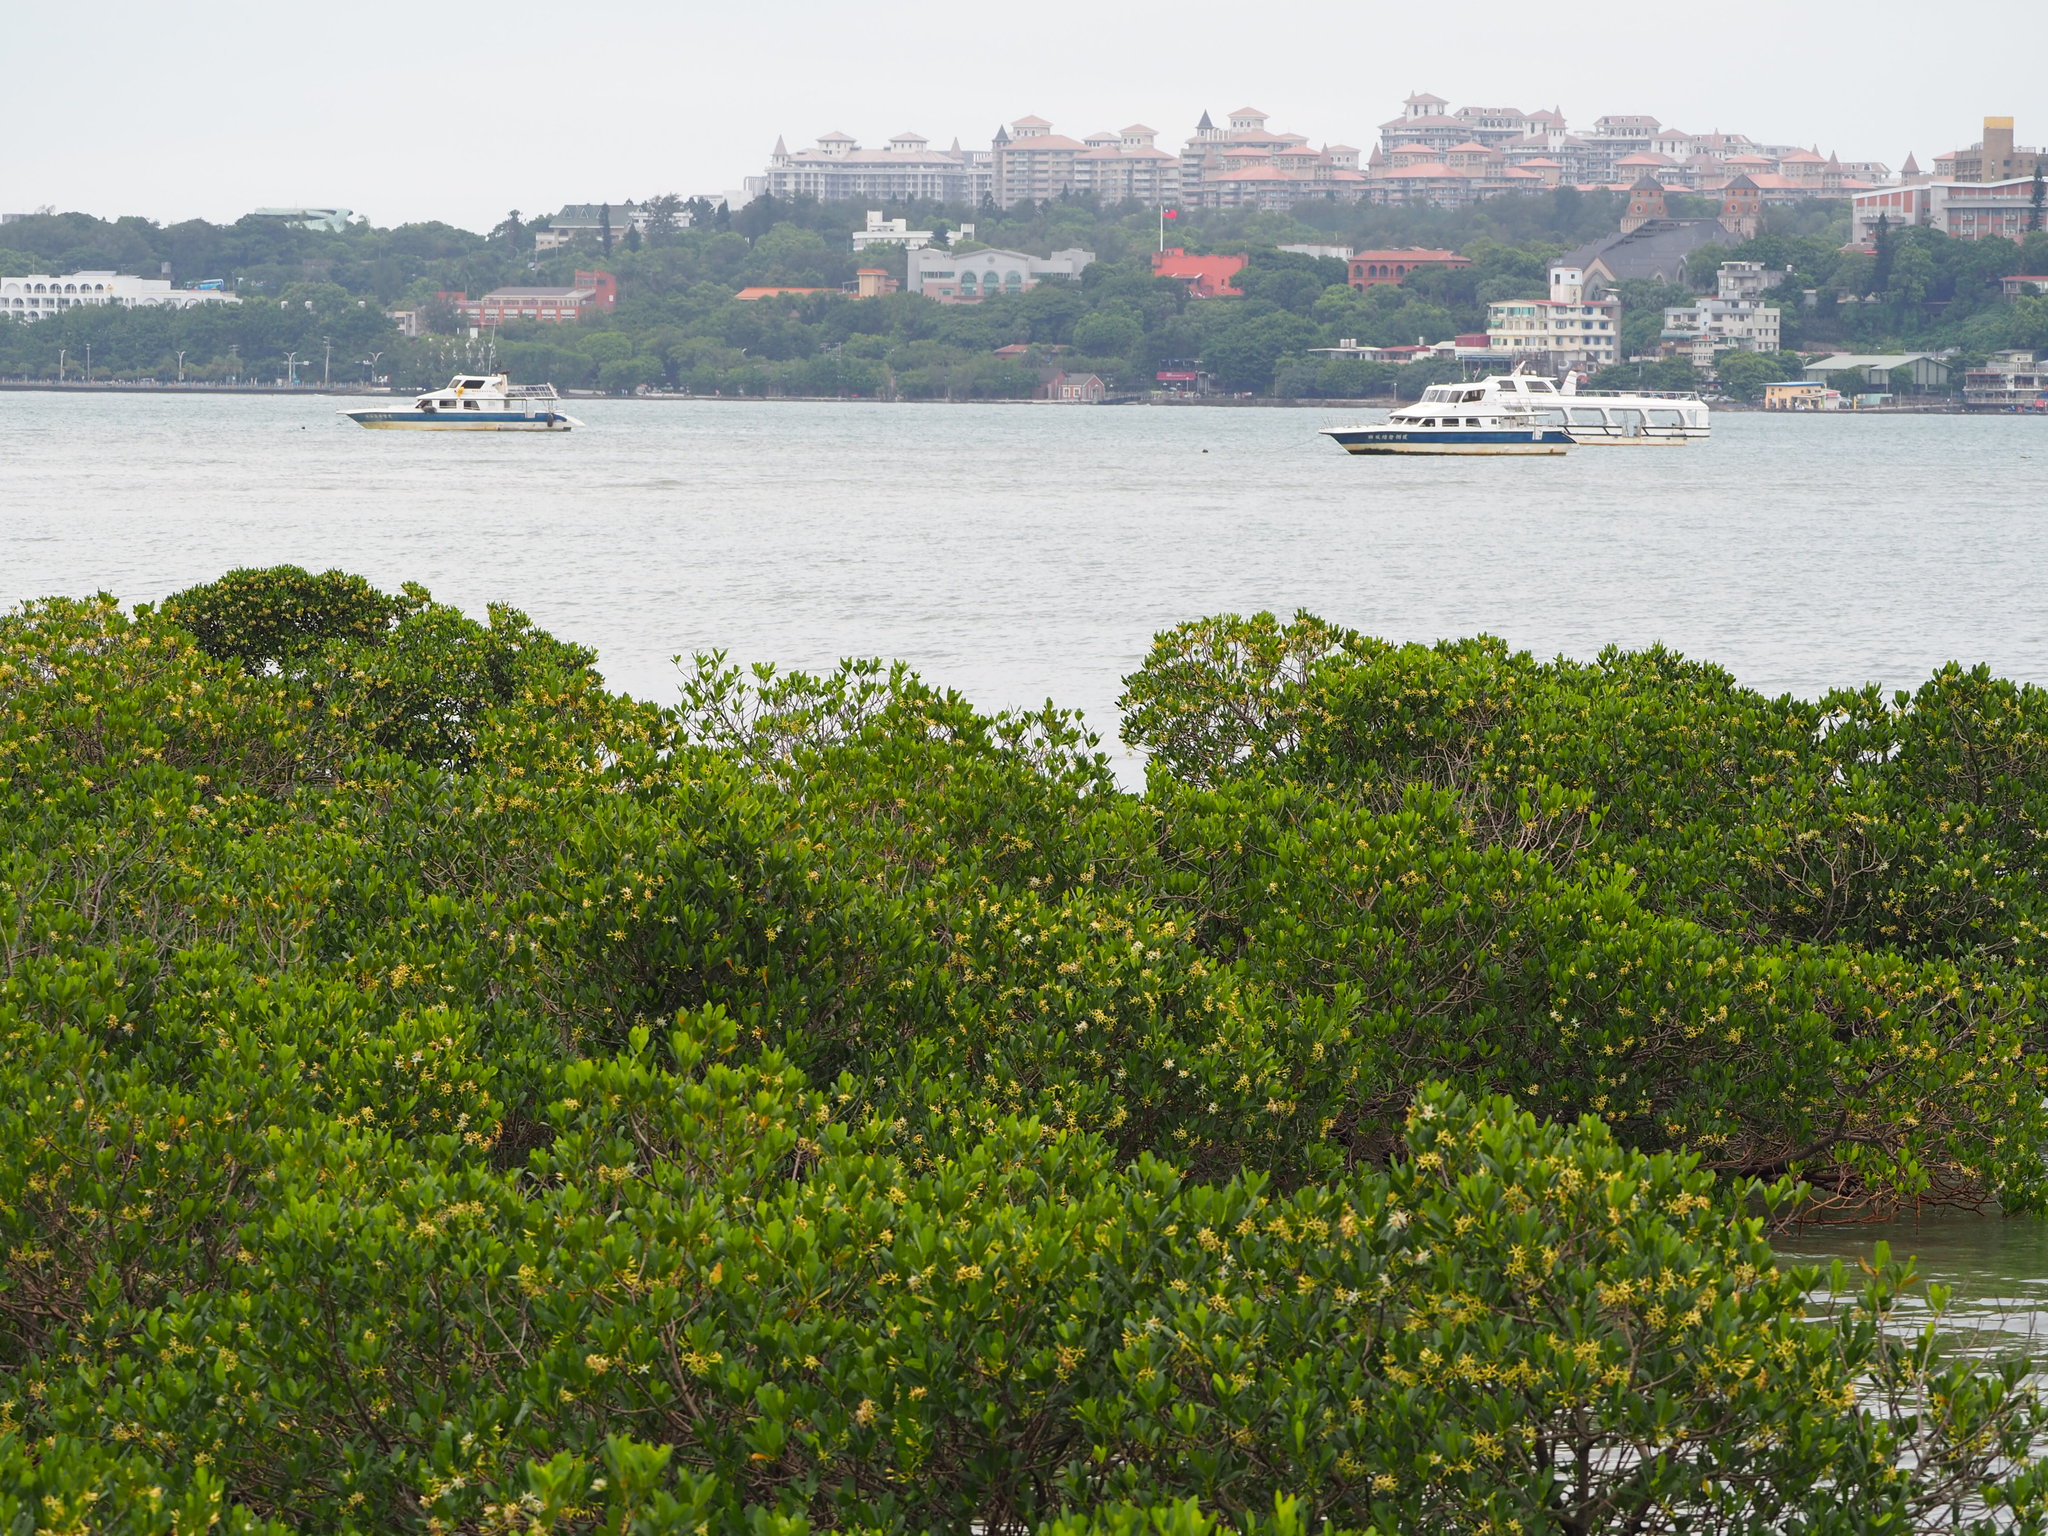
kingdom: Plantae
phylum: Tracheophyta
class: Magnoliopsida
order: Malpighiales
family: Rhizophoraceae
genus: Kandelia
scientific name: Kandelia obovata
